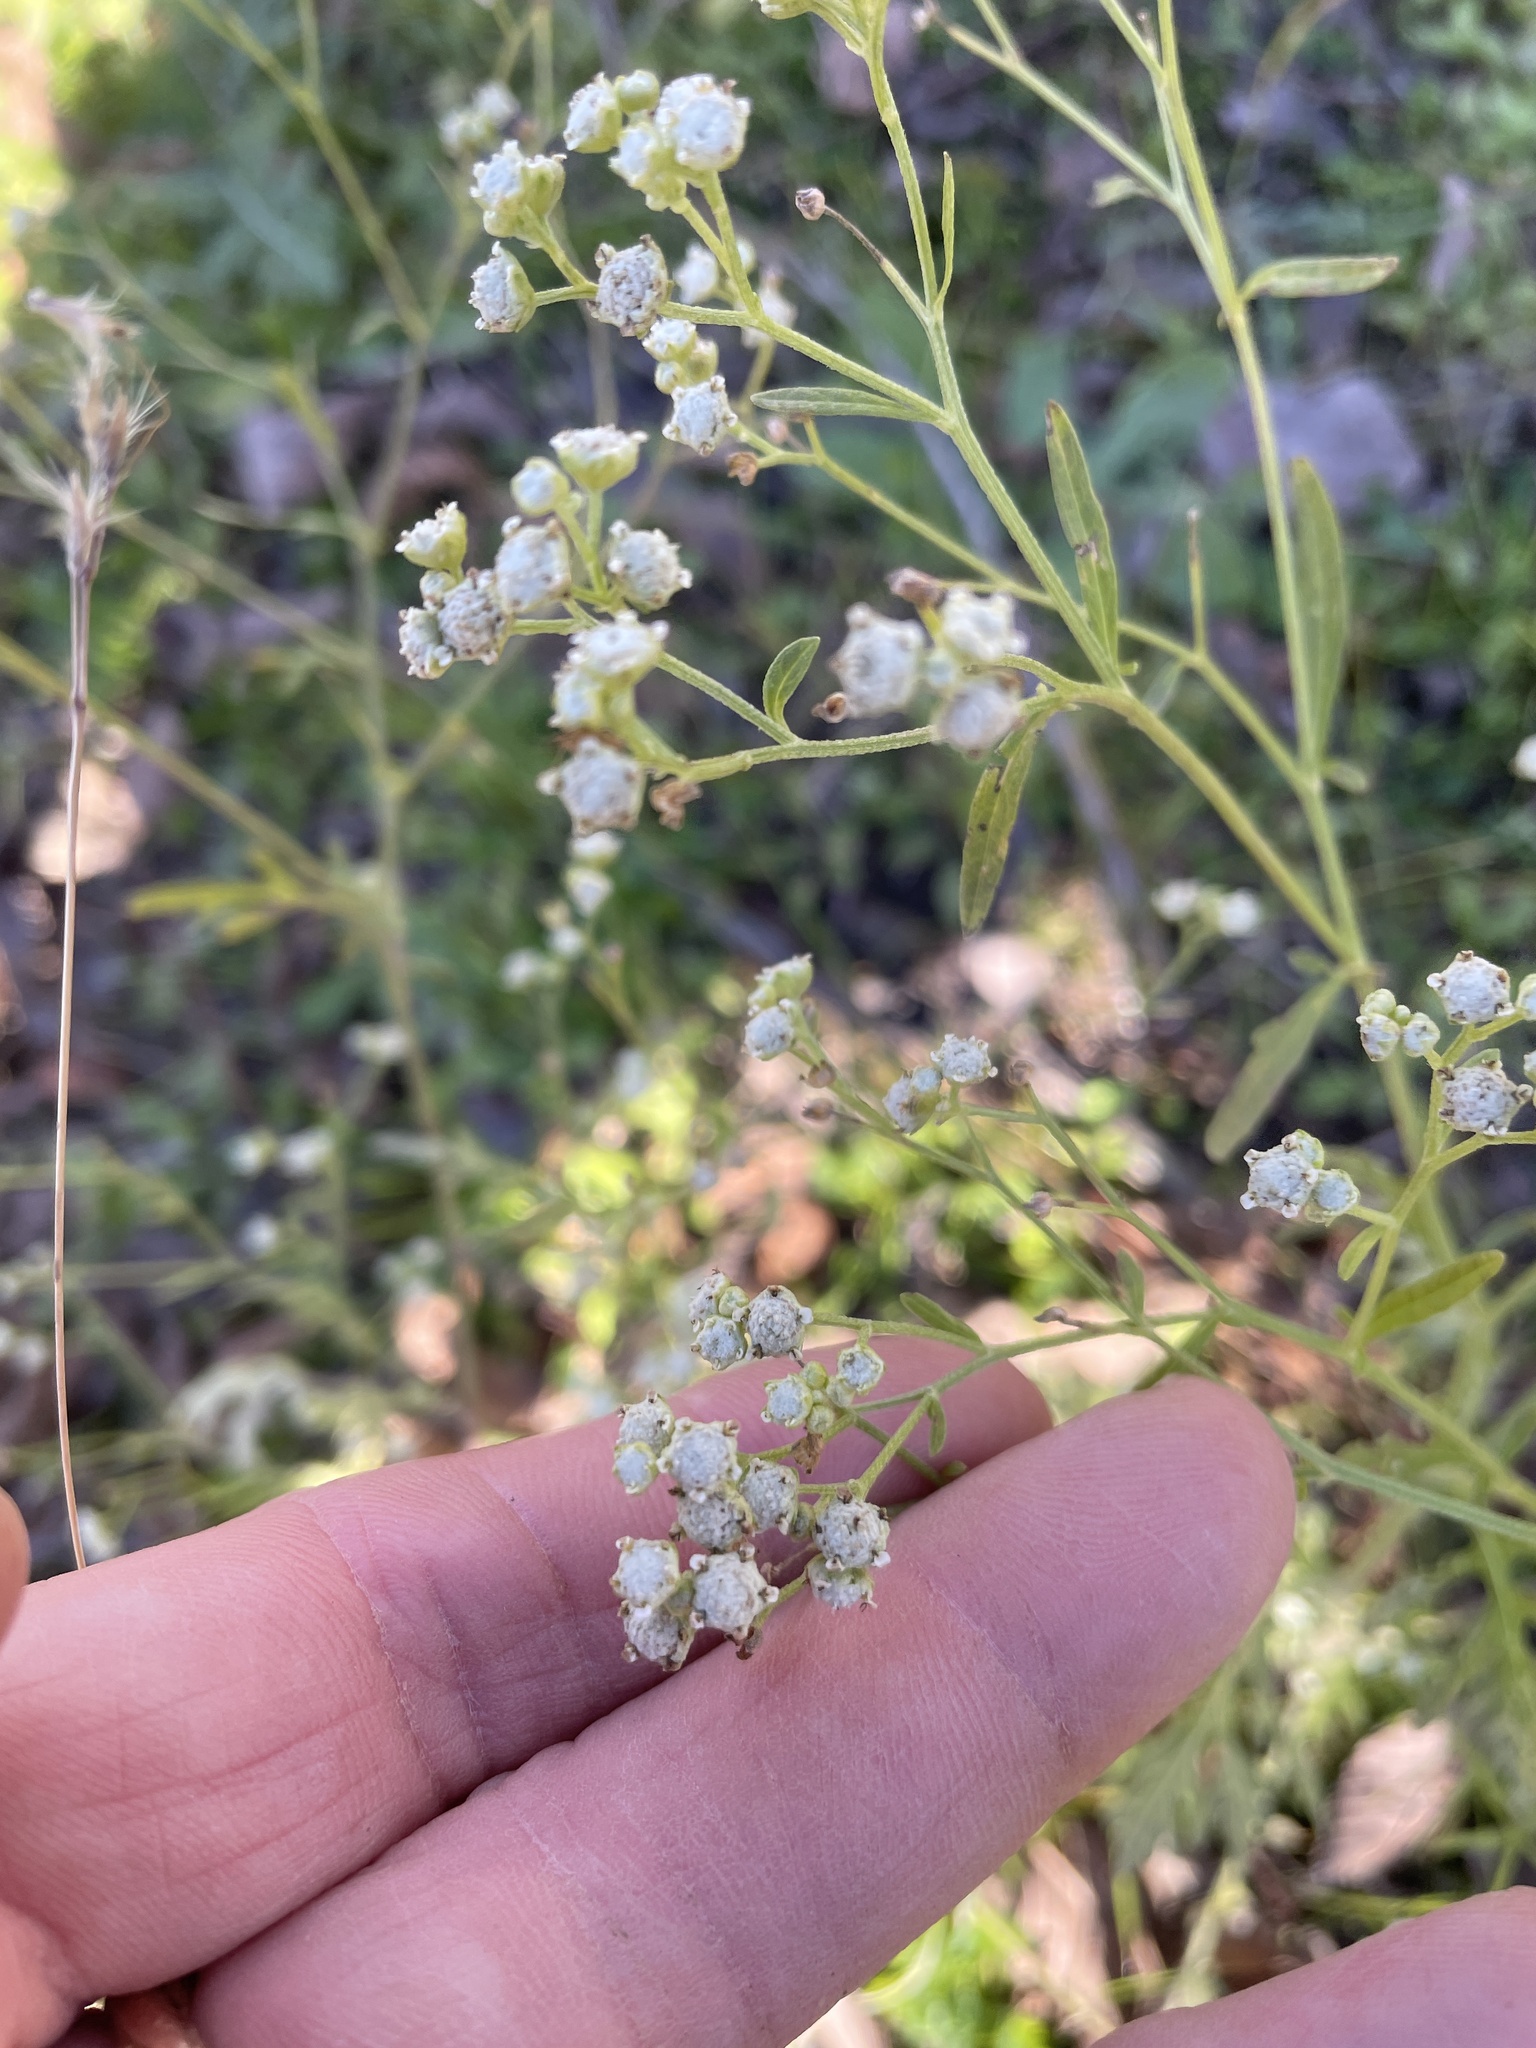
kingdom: Plantae
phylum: Tracheophyta
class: Magnoliopsida
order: Asterales
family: Asteraceae
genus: Parthenium
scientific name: Parthenium hysterophorus
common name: Santa maria feverfew
